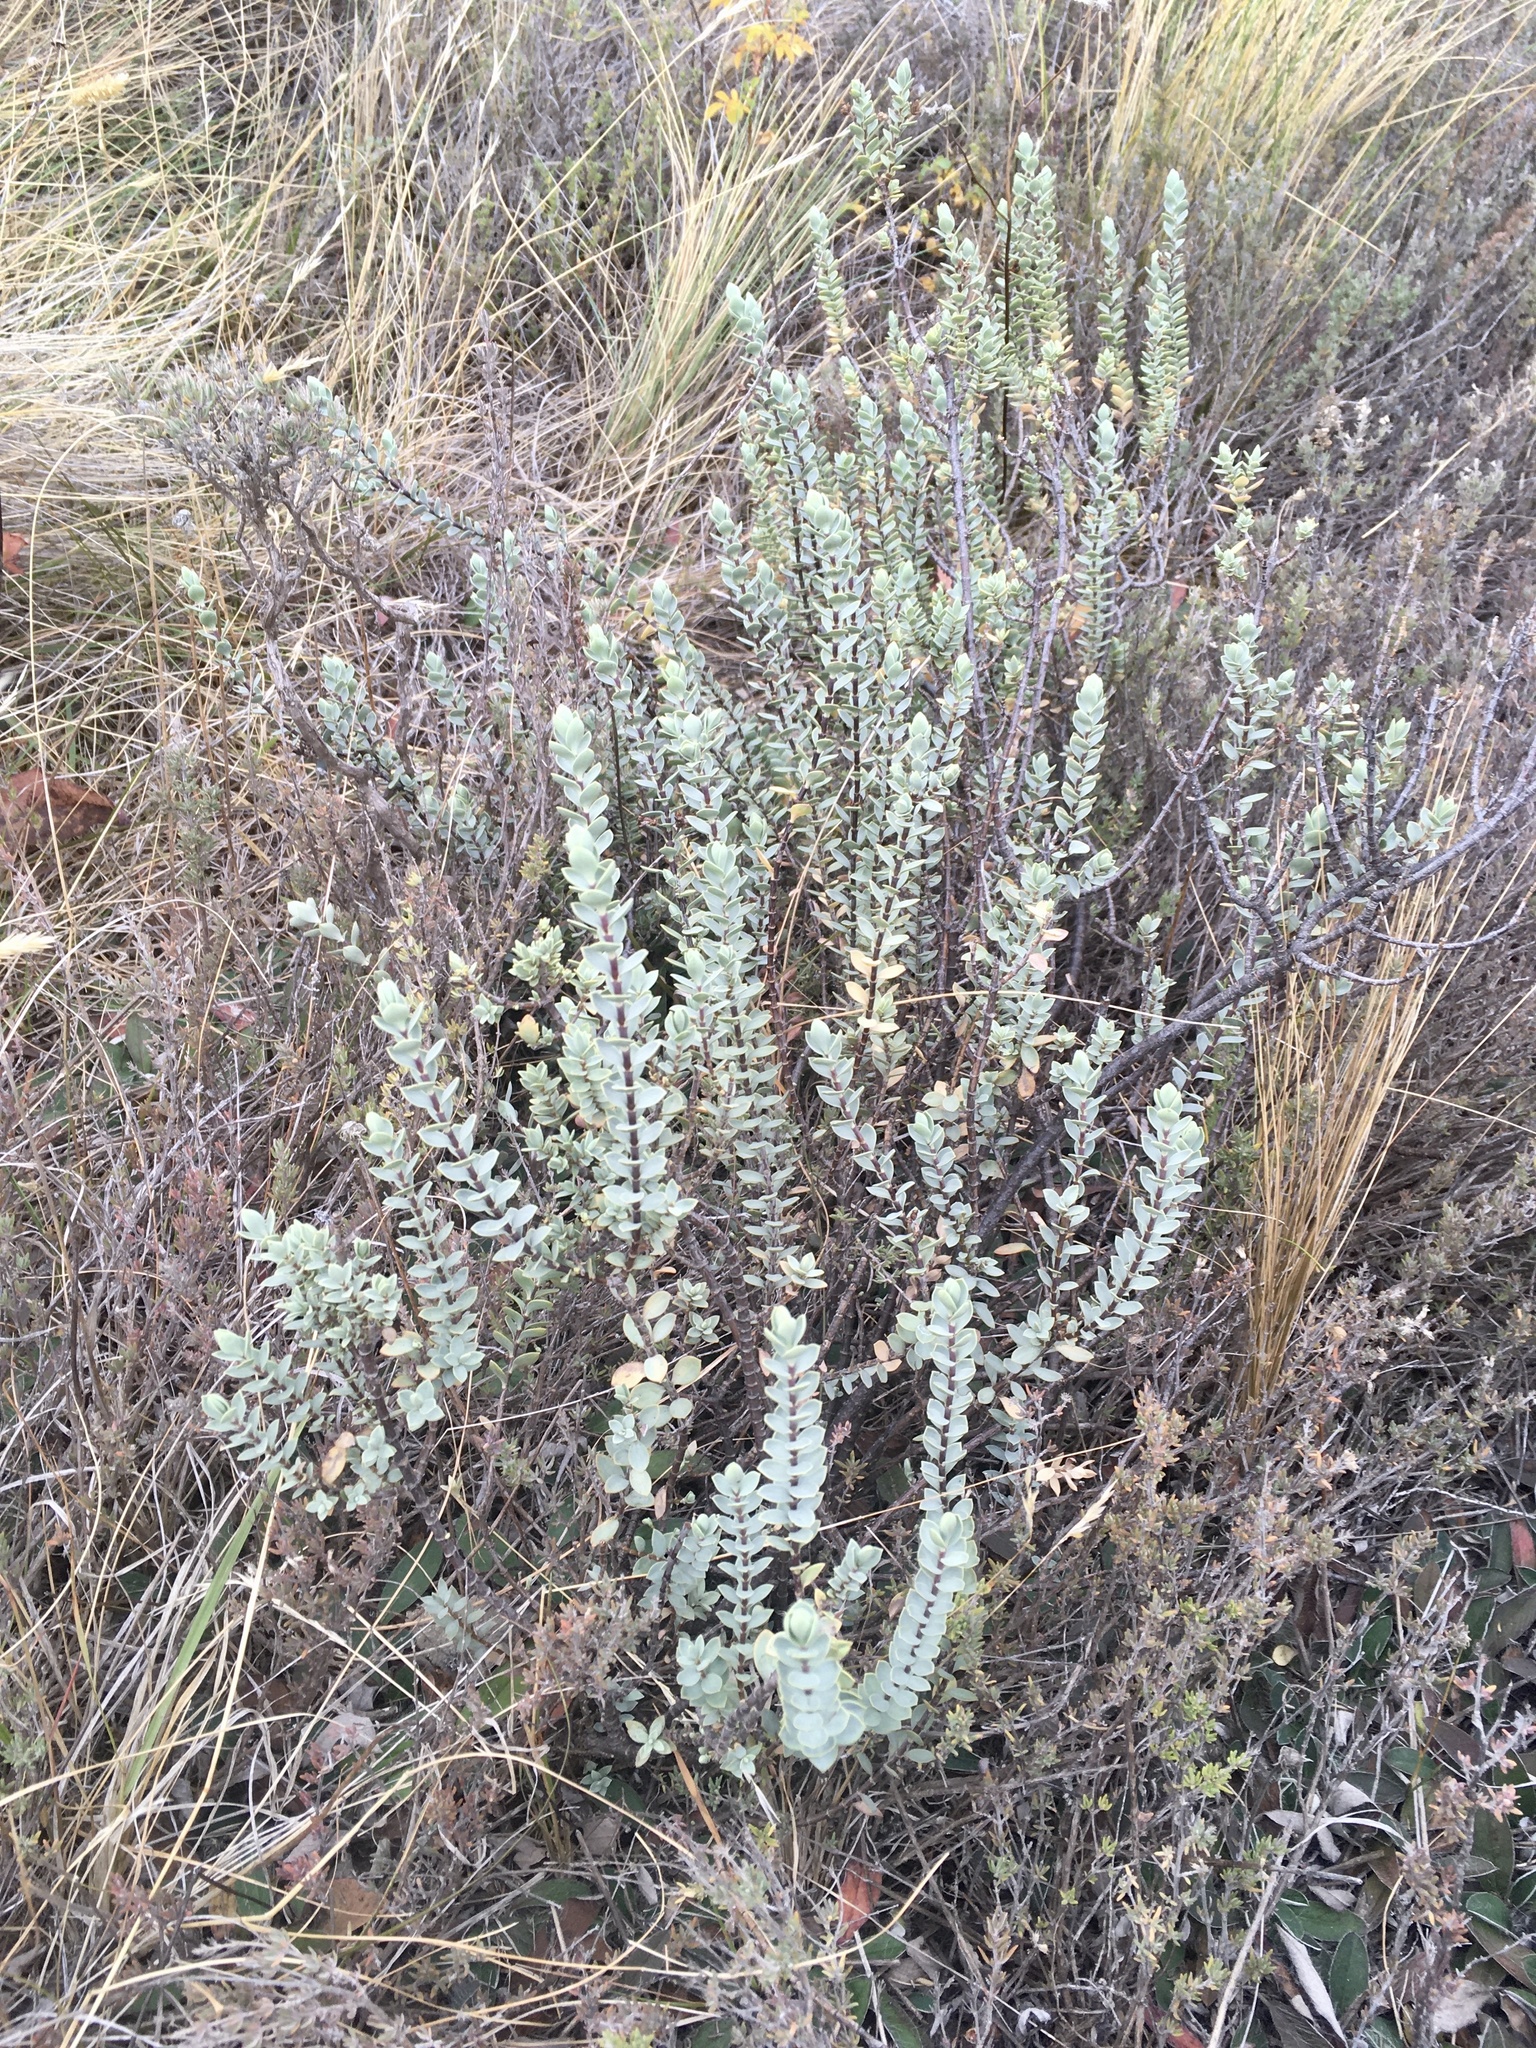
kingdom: Plantae
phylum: Tracheophyta
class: Magnoliopsida
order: Lamiales
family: Plantaginaceae
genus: Veronica
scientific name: Veronica pimeleoides
